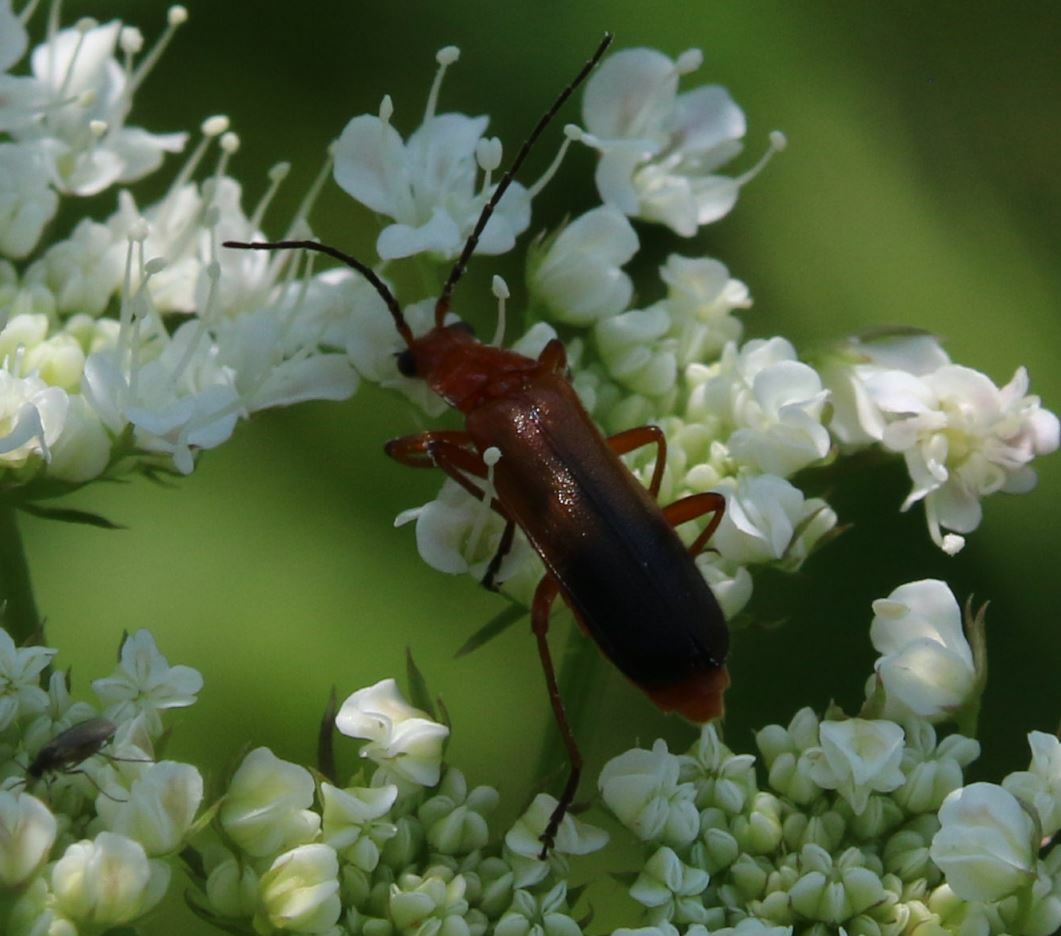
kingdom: Animalia
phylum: Arthropoda
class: Insecta
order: Coleoptera
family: Cantharidae
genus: Rhagonycha
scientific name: Rhagonycha fulva
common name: Common red soldier beetle
